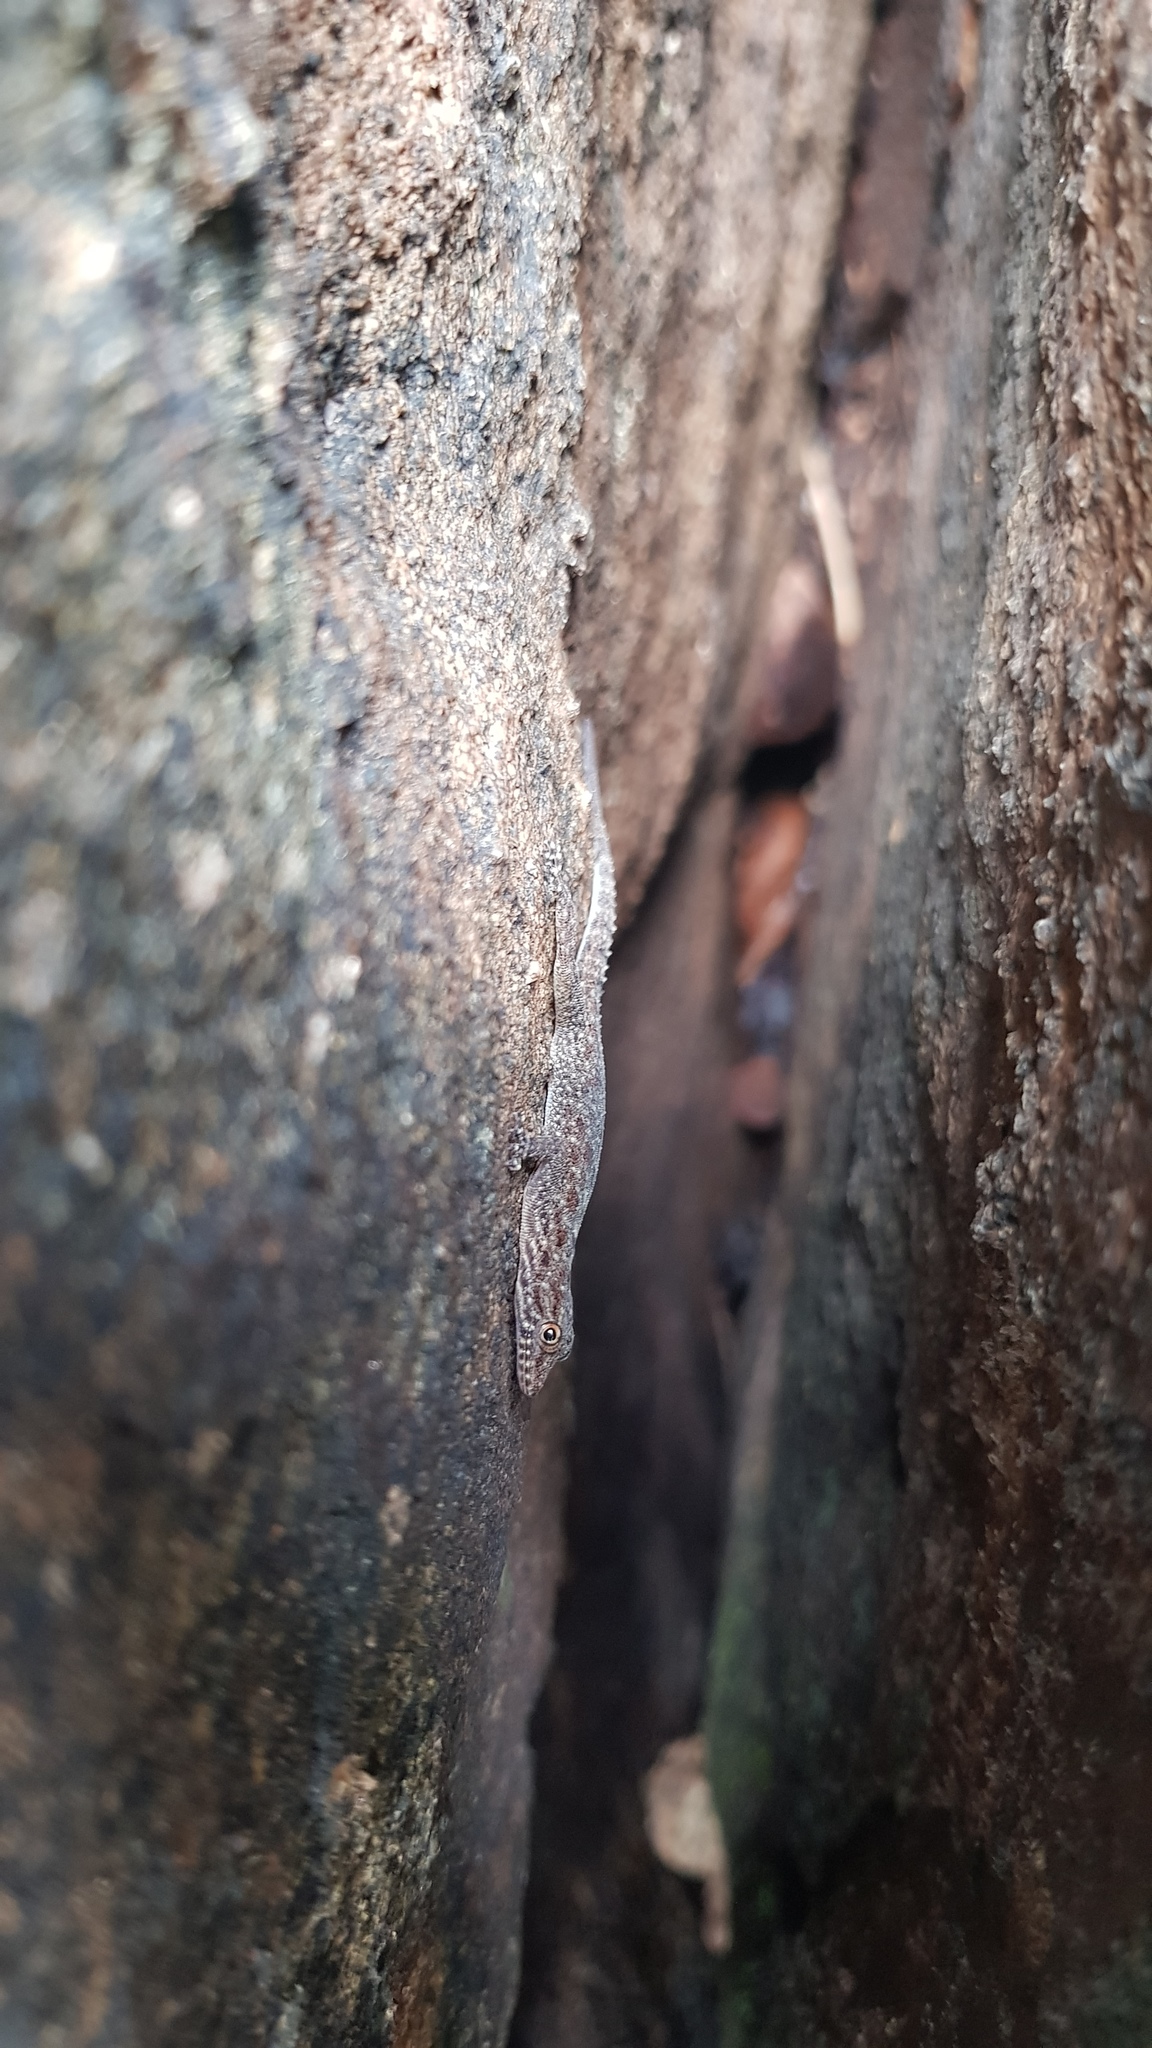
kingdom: Animalia
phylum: Chordata
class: Squamata
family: Gekkonidae
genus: Cnemaspis
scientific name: Cnemaspis gracilis
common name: Graceful day gecko
